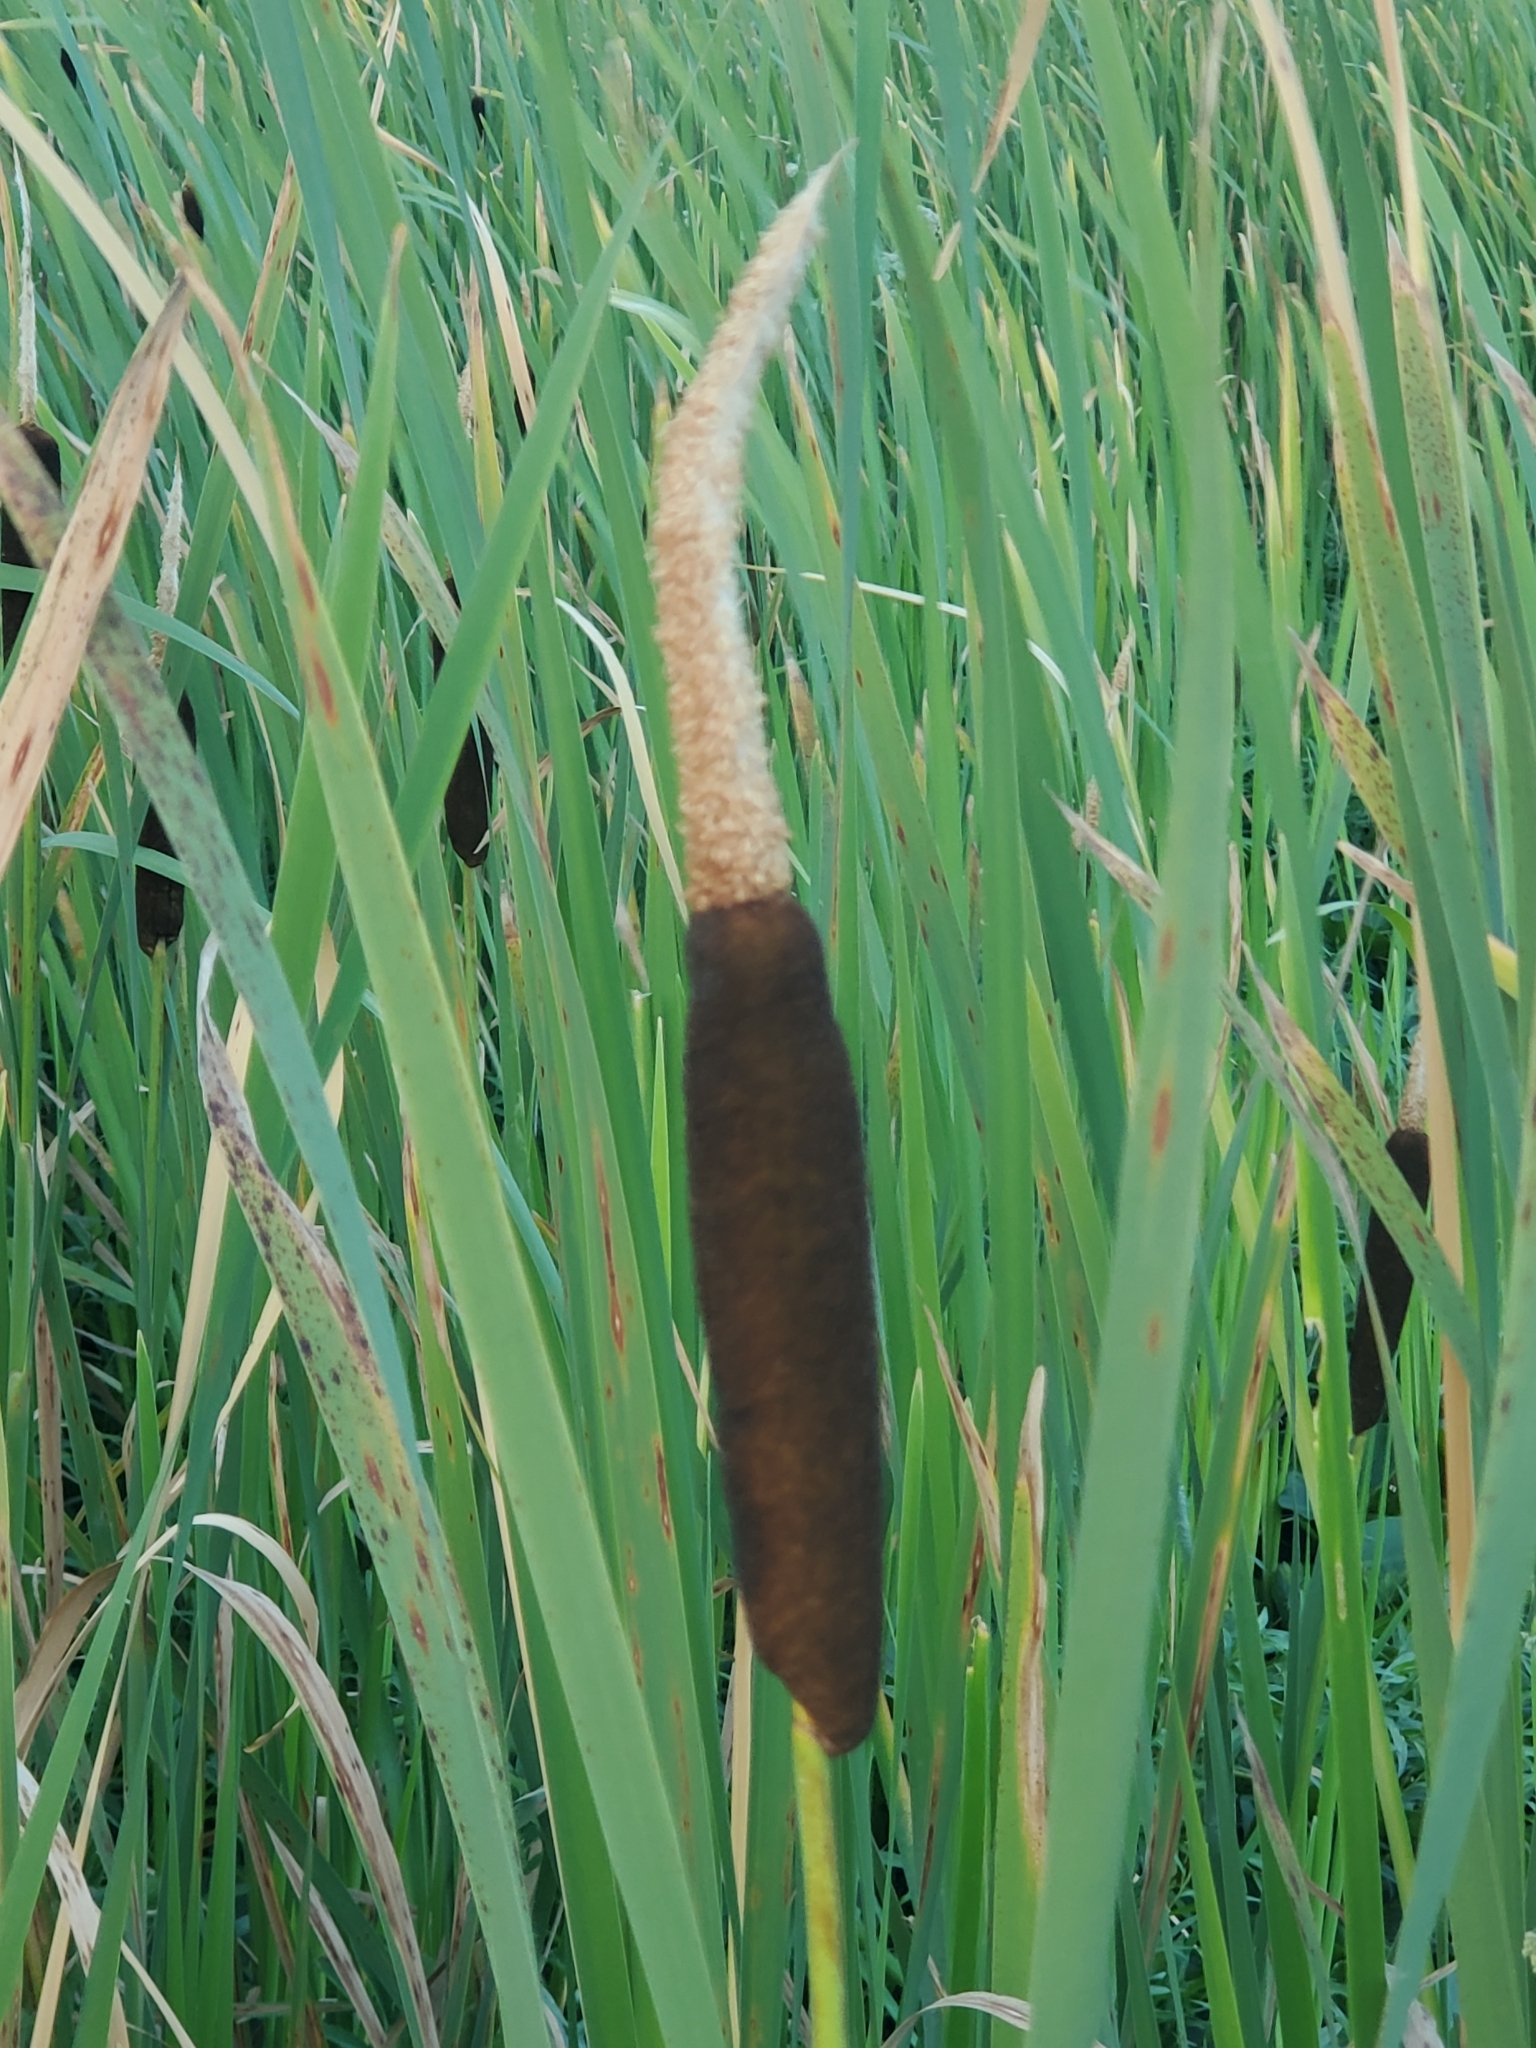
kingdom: Plantae
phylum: Tracheophyta
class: Liliopsida
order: Poales
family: Typhaceae
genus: Typha
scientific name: Typha latifolia
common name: Broadleaf cattail
